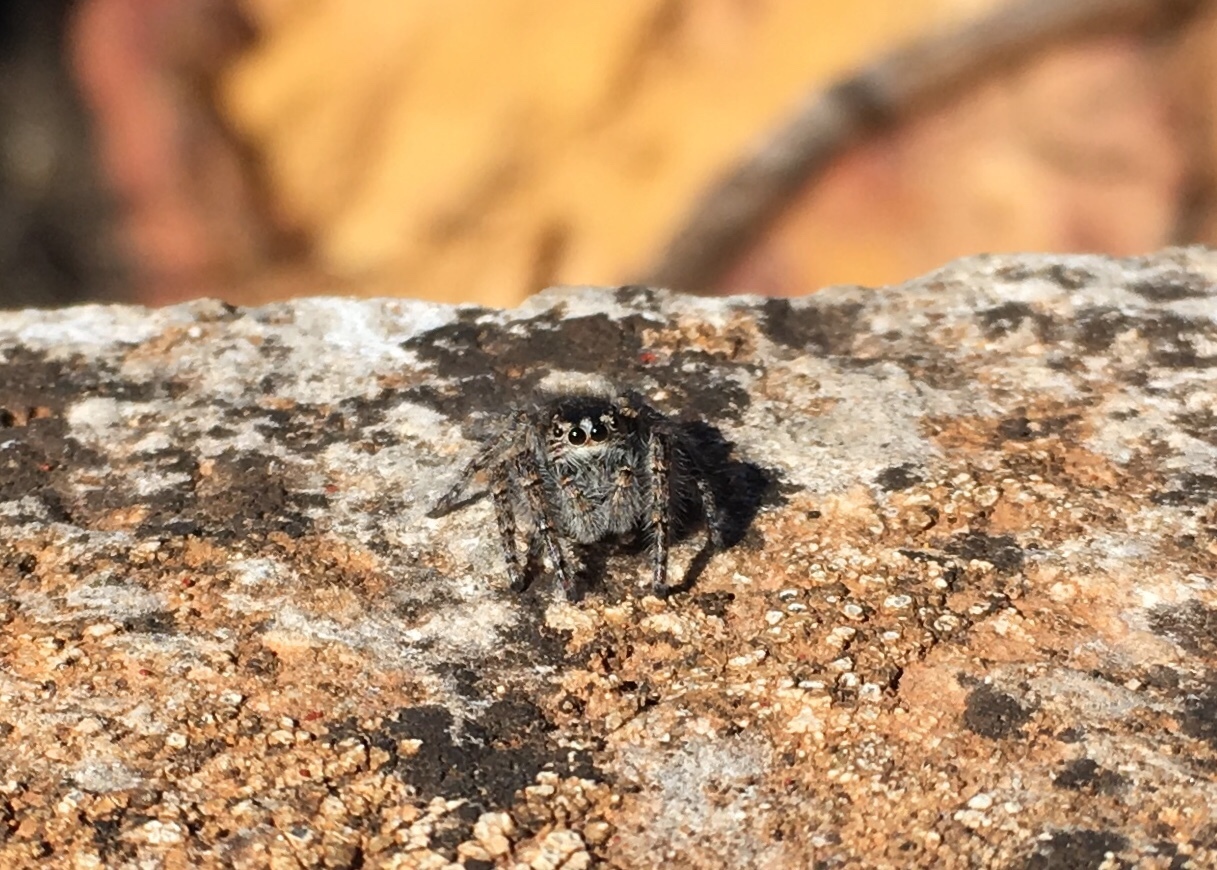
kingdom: Animalia
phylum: Arthropoda
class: Arachnida
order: Araneae
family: Salticidae
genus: Philaeus
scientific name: Philaeus chrysops
